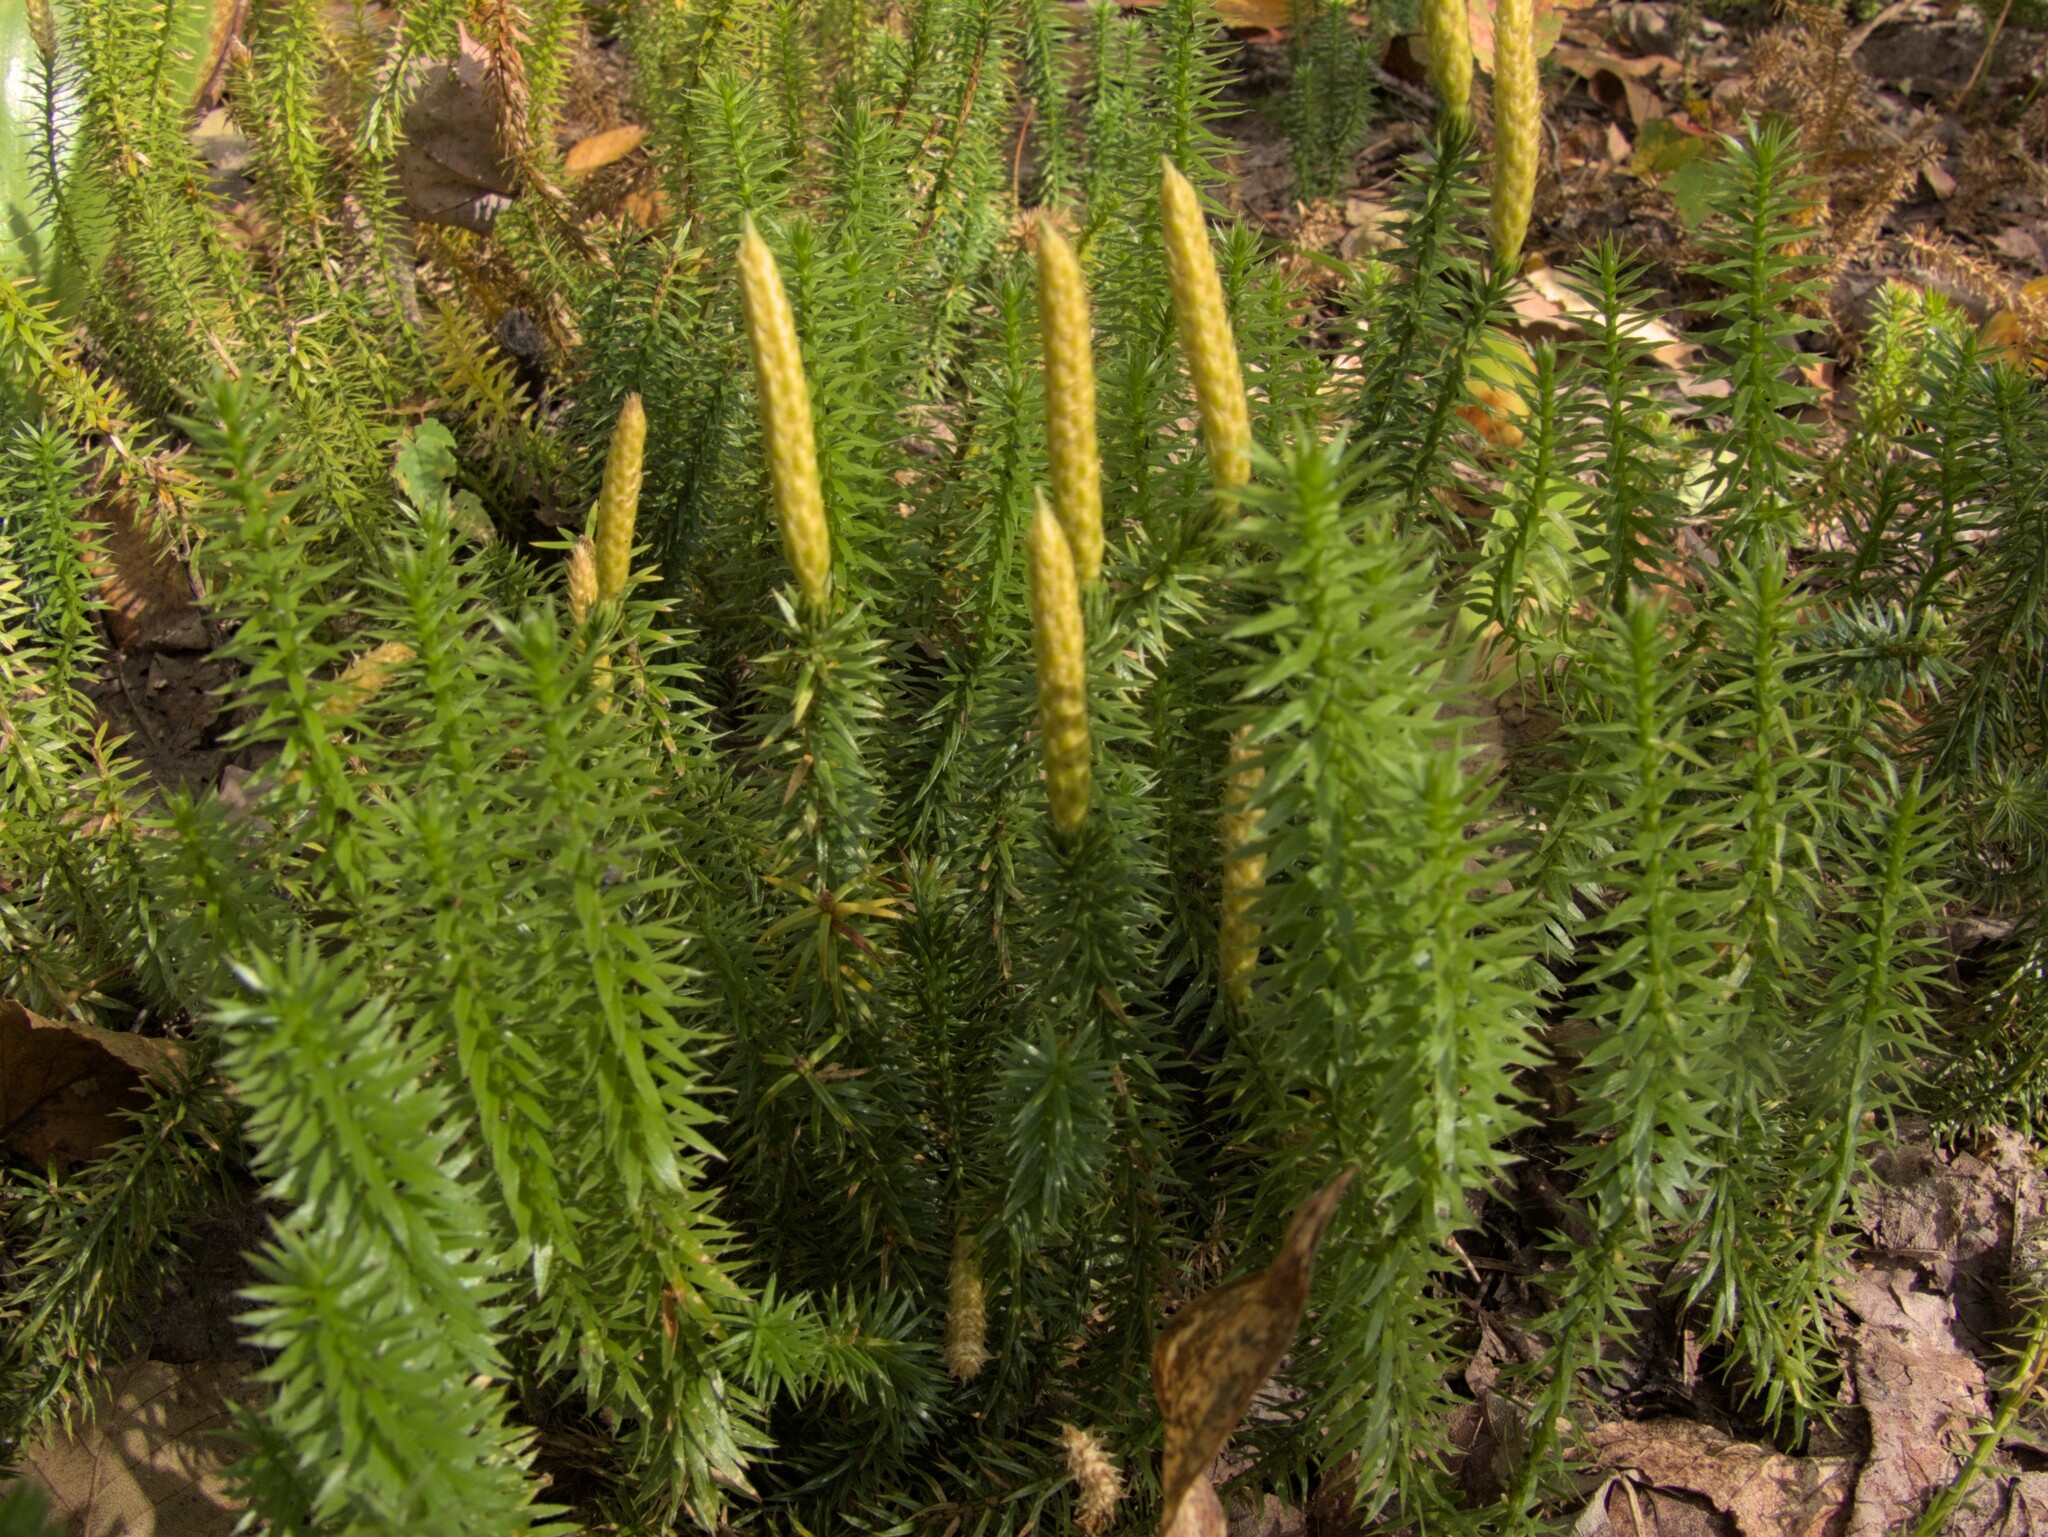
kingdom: Plantae
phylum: Tracheophyta
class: Lycopodiopsida
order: Lycopodiales
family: Lycopodiaceae
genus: Spinulum
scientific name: Spinulum annotinum
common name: Interrupted club-moss
